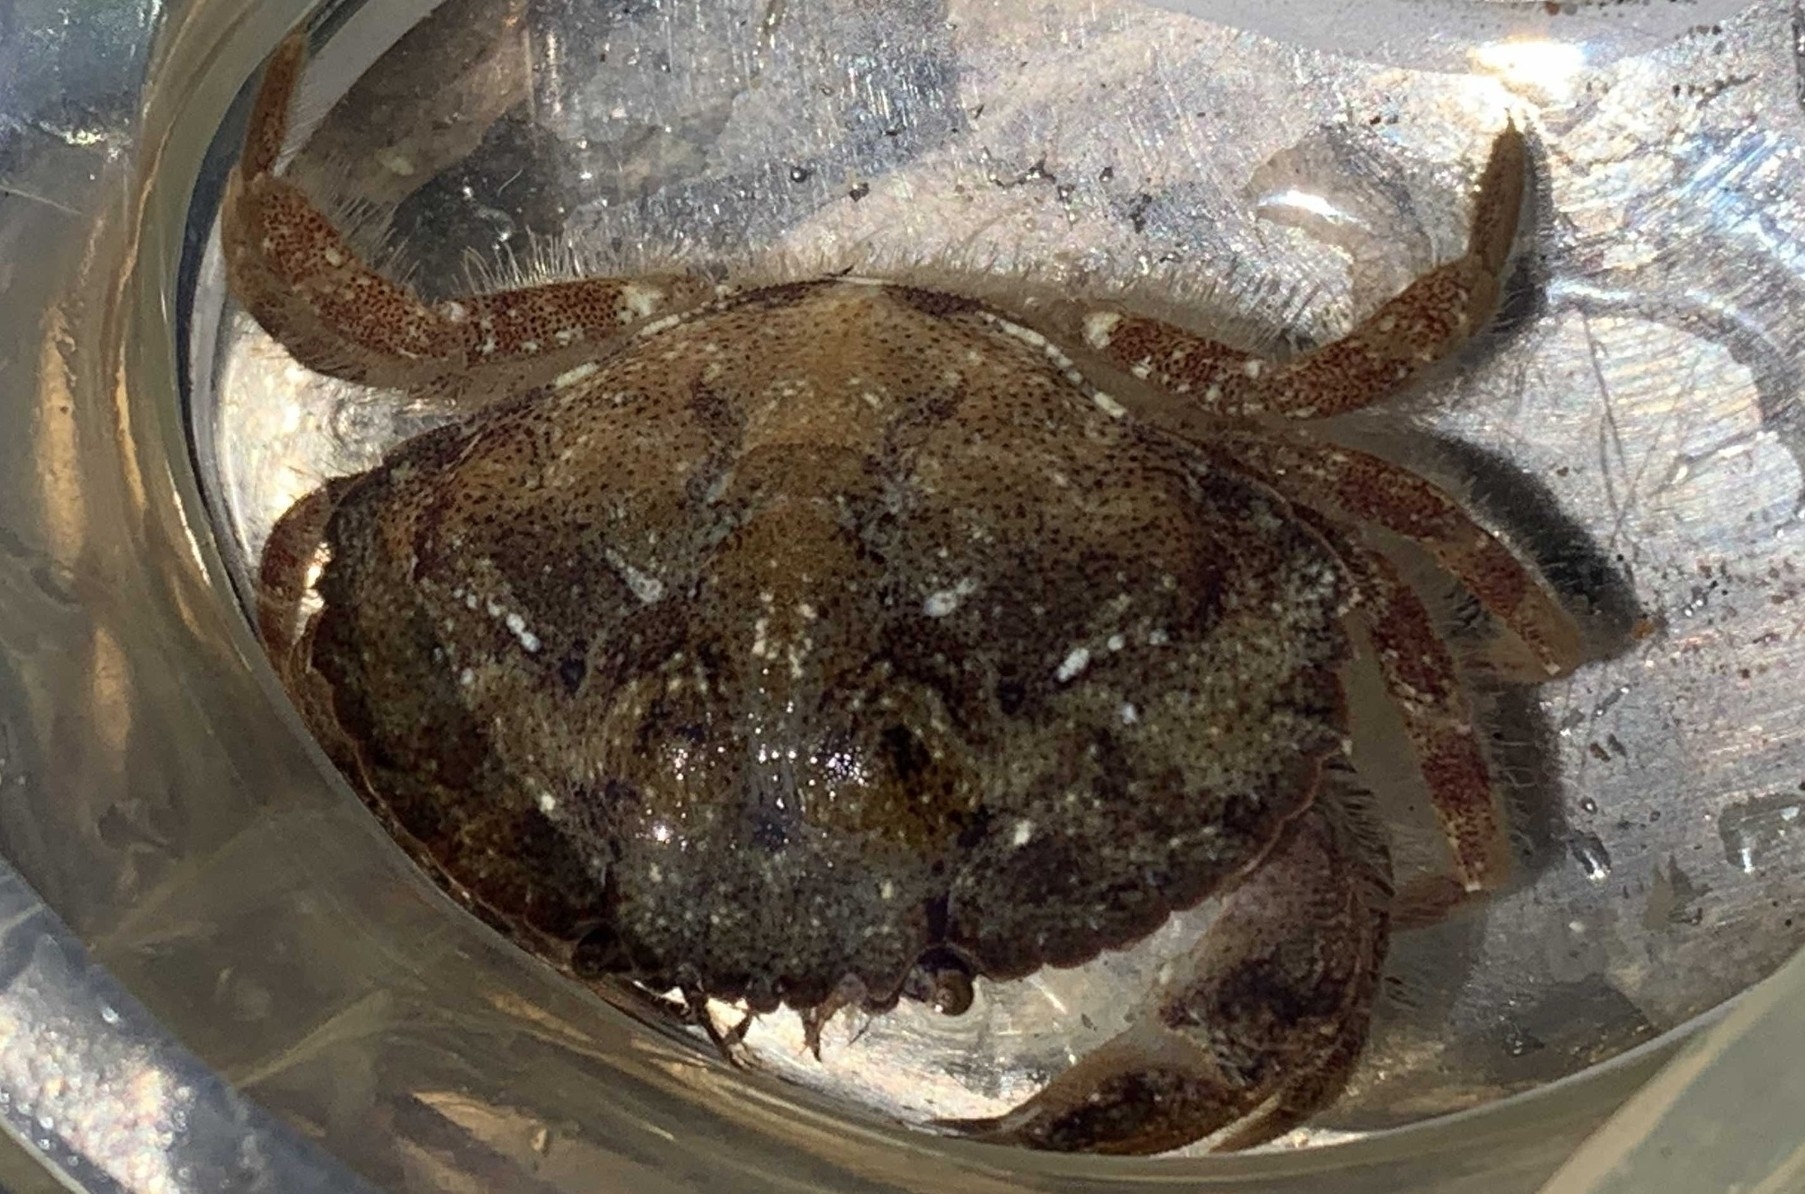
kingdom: Animalia
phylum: Arthropoda
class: Malacostraca
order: Decapoda
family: Cancridae
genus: Glebocarcinus
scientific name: Glebocarcinus amphioetus
